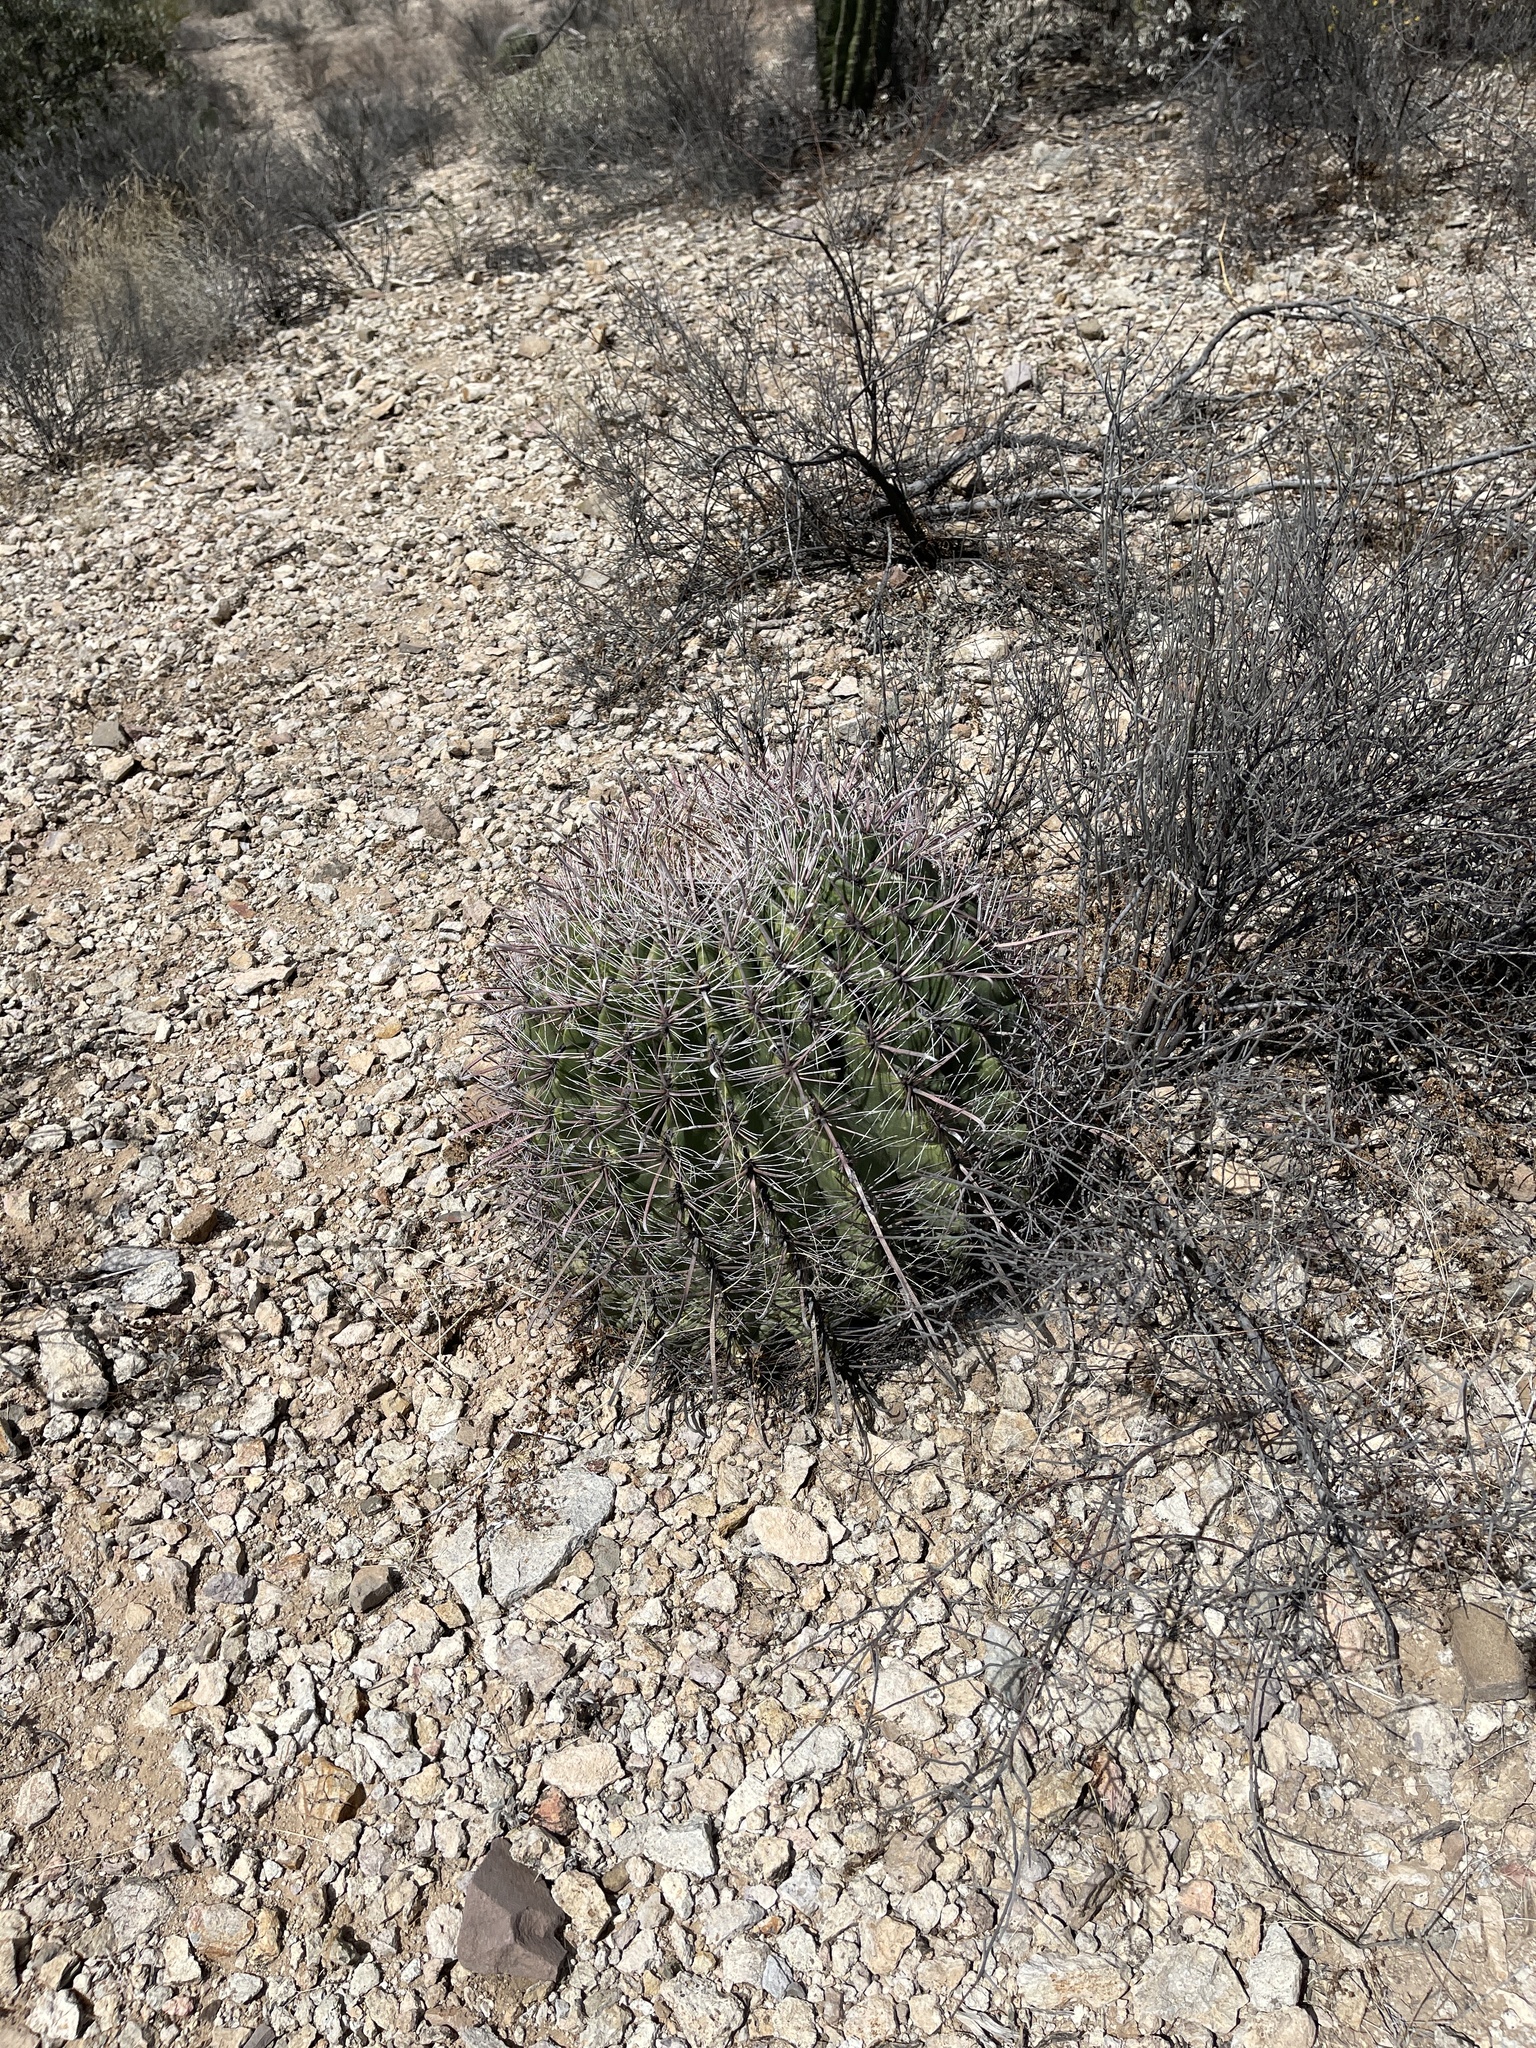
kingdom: Plantae
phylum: Tracheophyta
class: Magnoliopsida
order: Caryophyllales
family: Cactaceae
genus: Ferocactus
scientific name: Ferocactus wislizeni
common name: Candy barrel cactus
